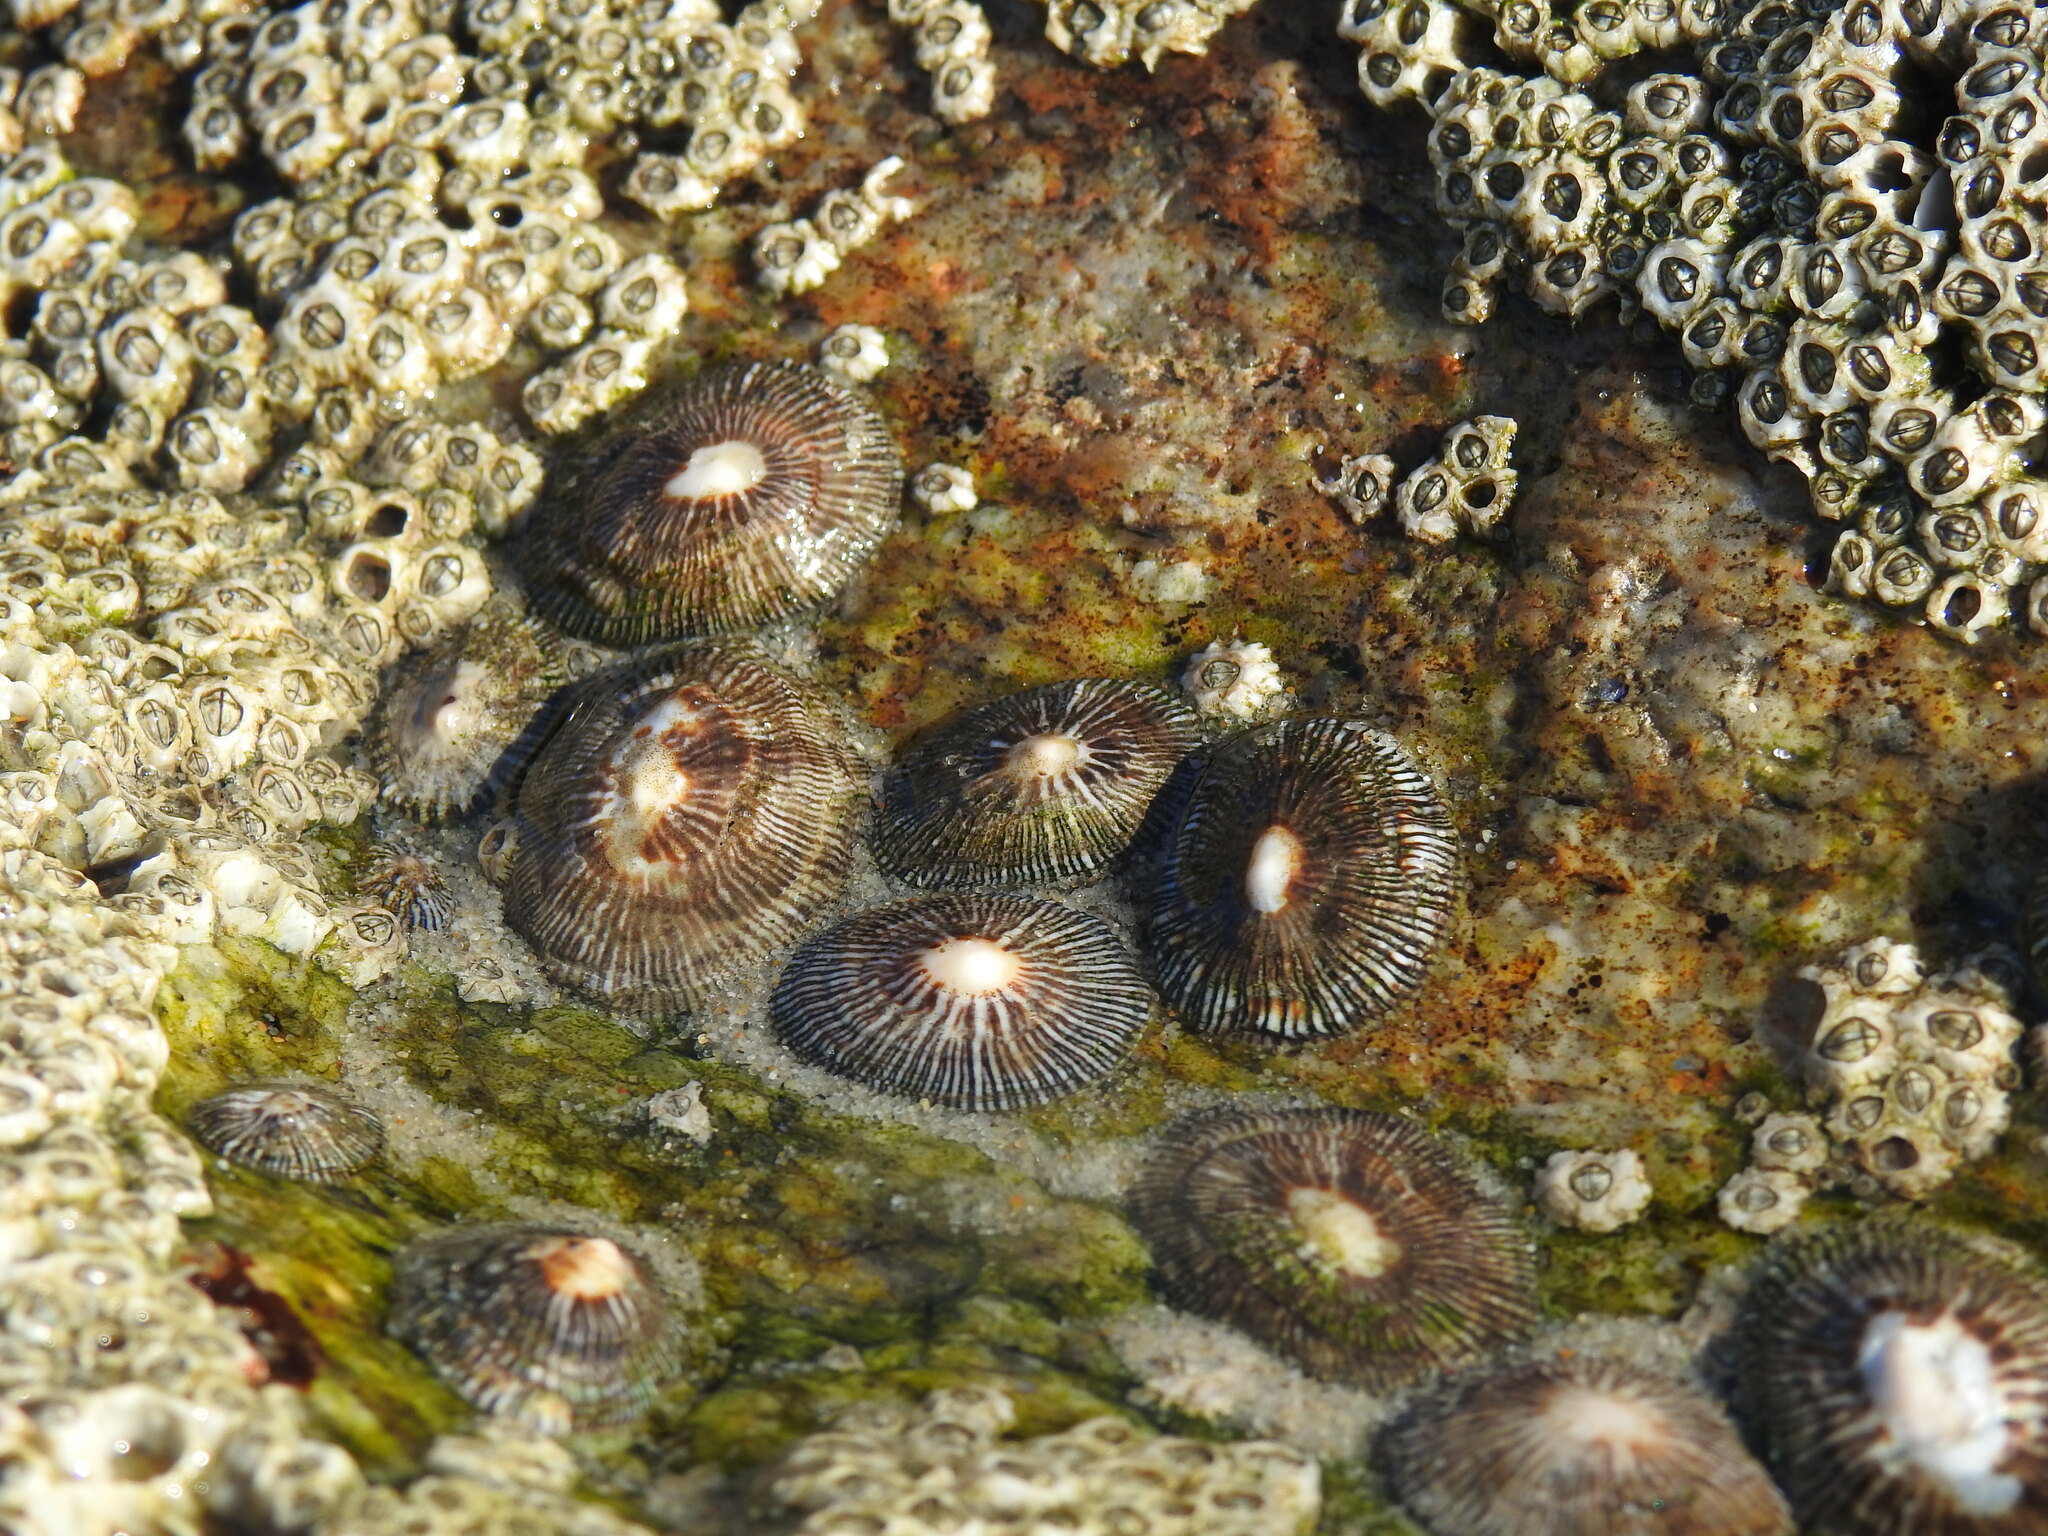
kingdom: Animalia
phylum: Mollusca
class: Gastropoda
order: Siphonariida
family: Siphonariidae
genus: Siphonaria
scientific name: Siphonaria pectinata
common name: Striped false limpet
